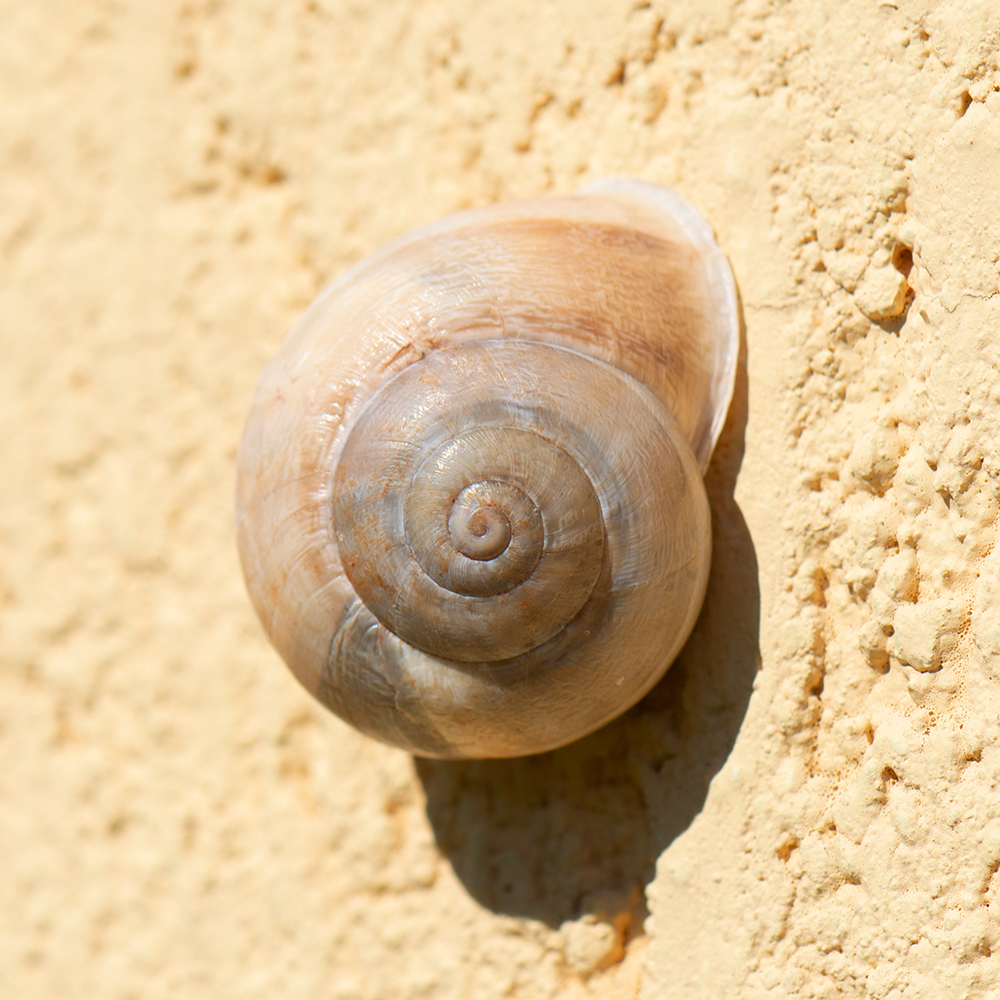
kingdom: Animalia
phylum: Mollusca
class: Gastropoda
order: Stylommatophora
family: Helicidae
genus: Eobania
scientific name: Eobania vermiculata
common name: Chocolateband snail
